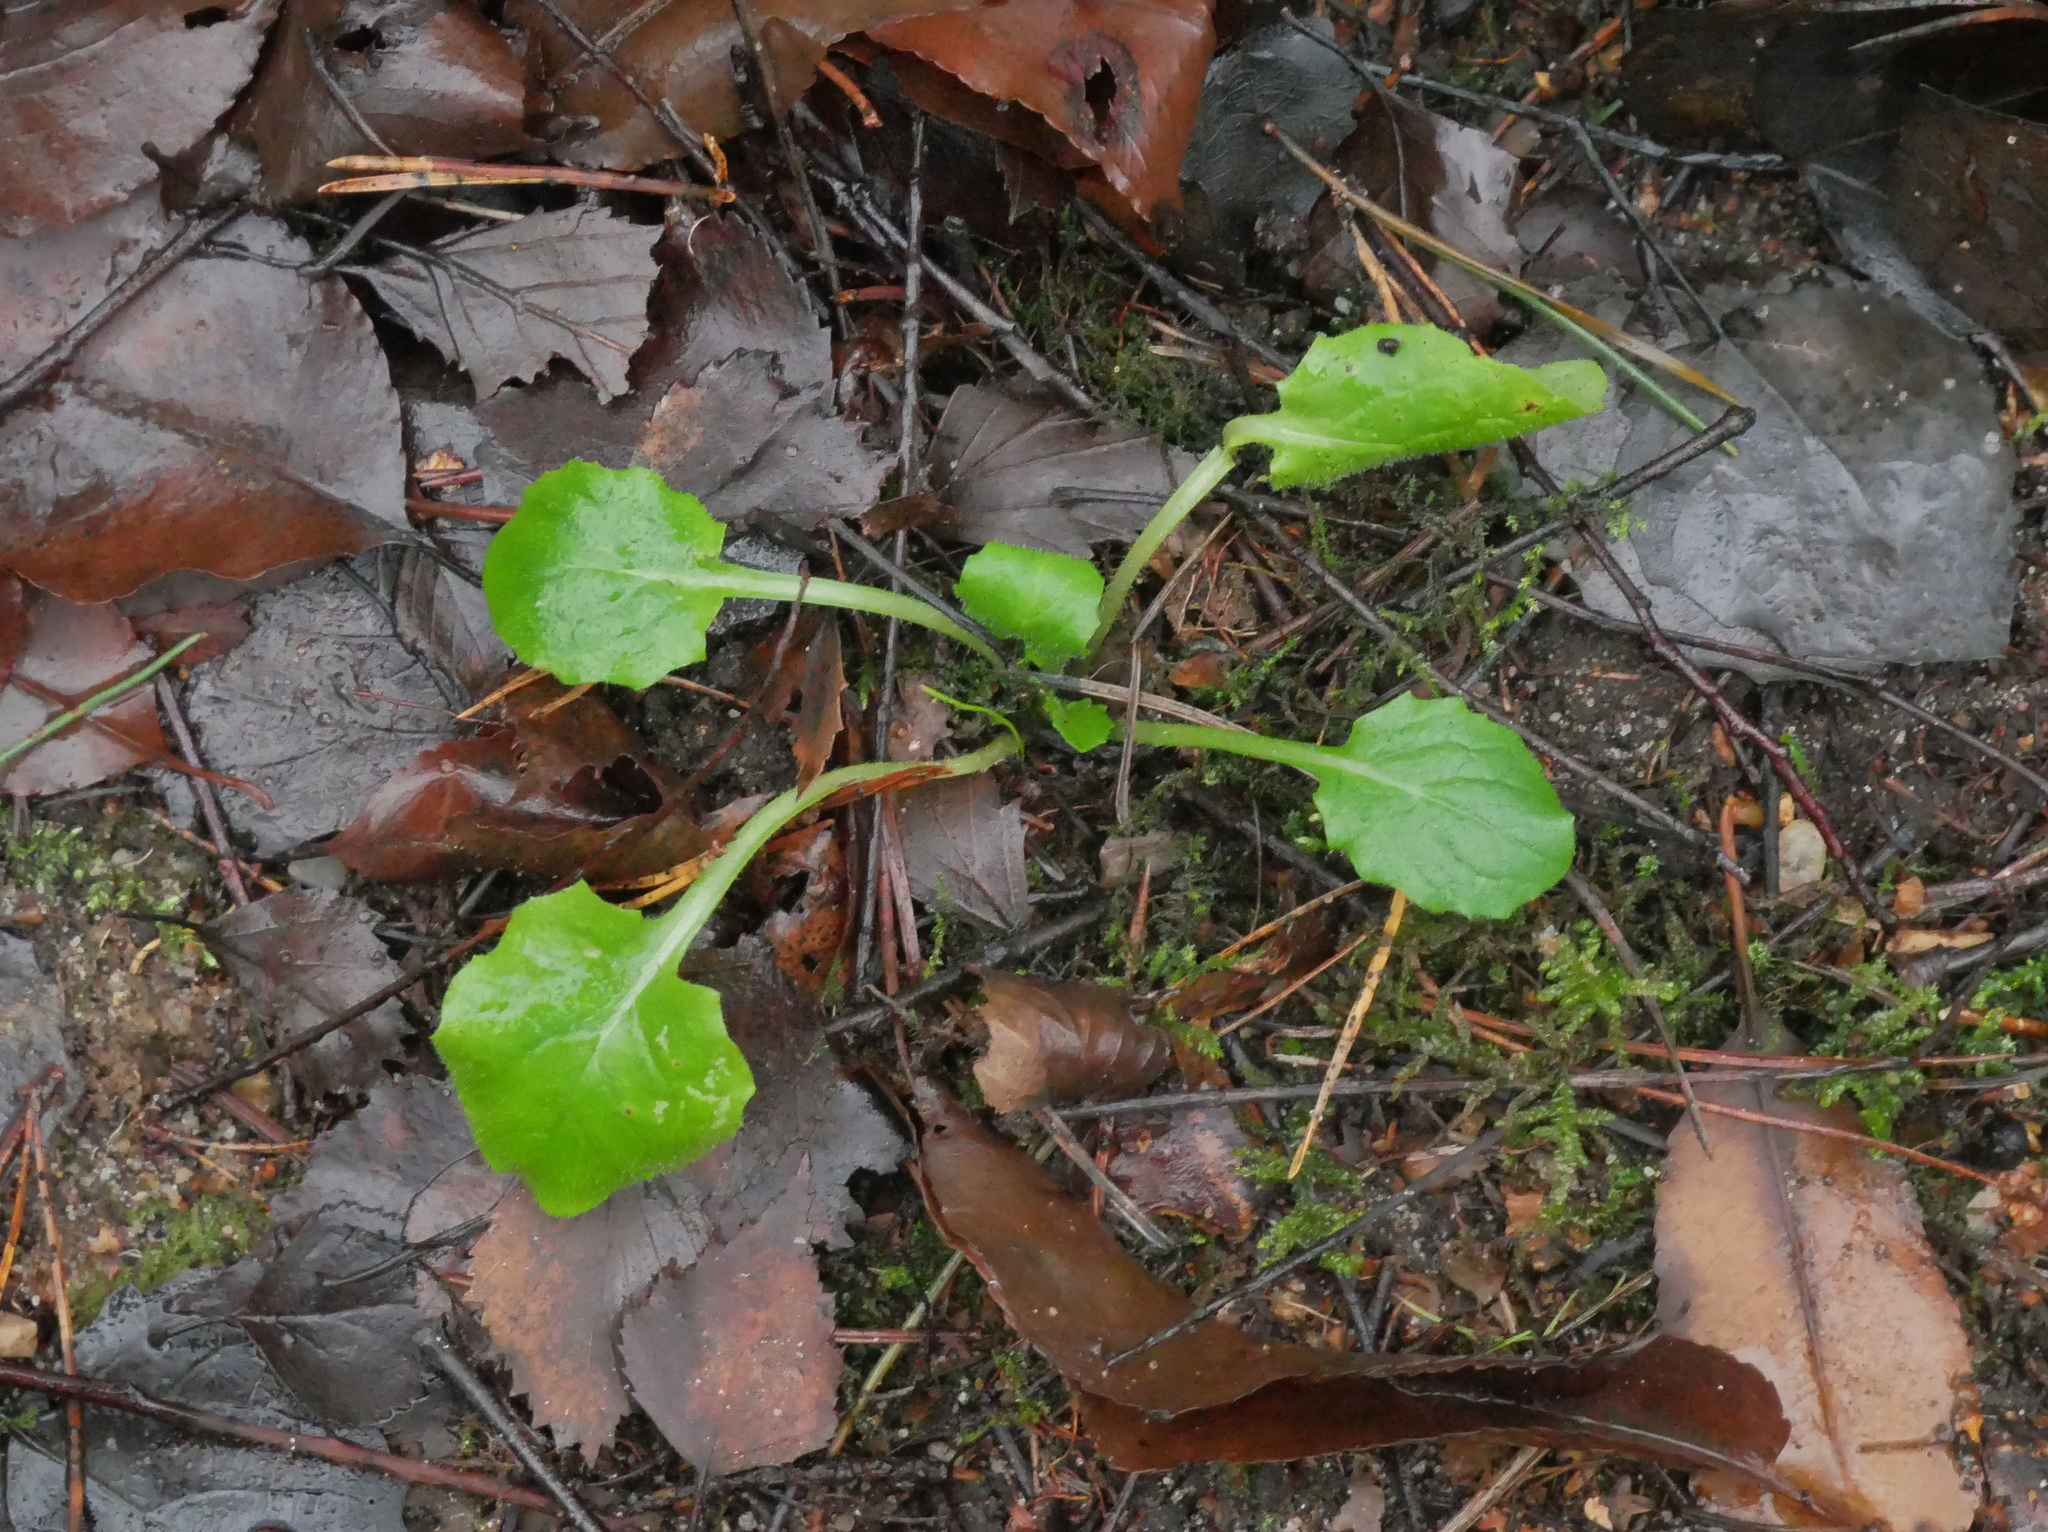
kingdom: Plantae
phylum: Tracheophyta
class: Magnoliopsida
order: Asterales
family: Asteraceae
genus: Lapsana
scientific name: Lapsana communis
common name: Nipplewort
